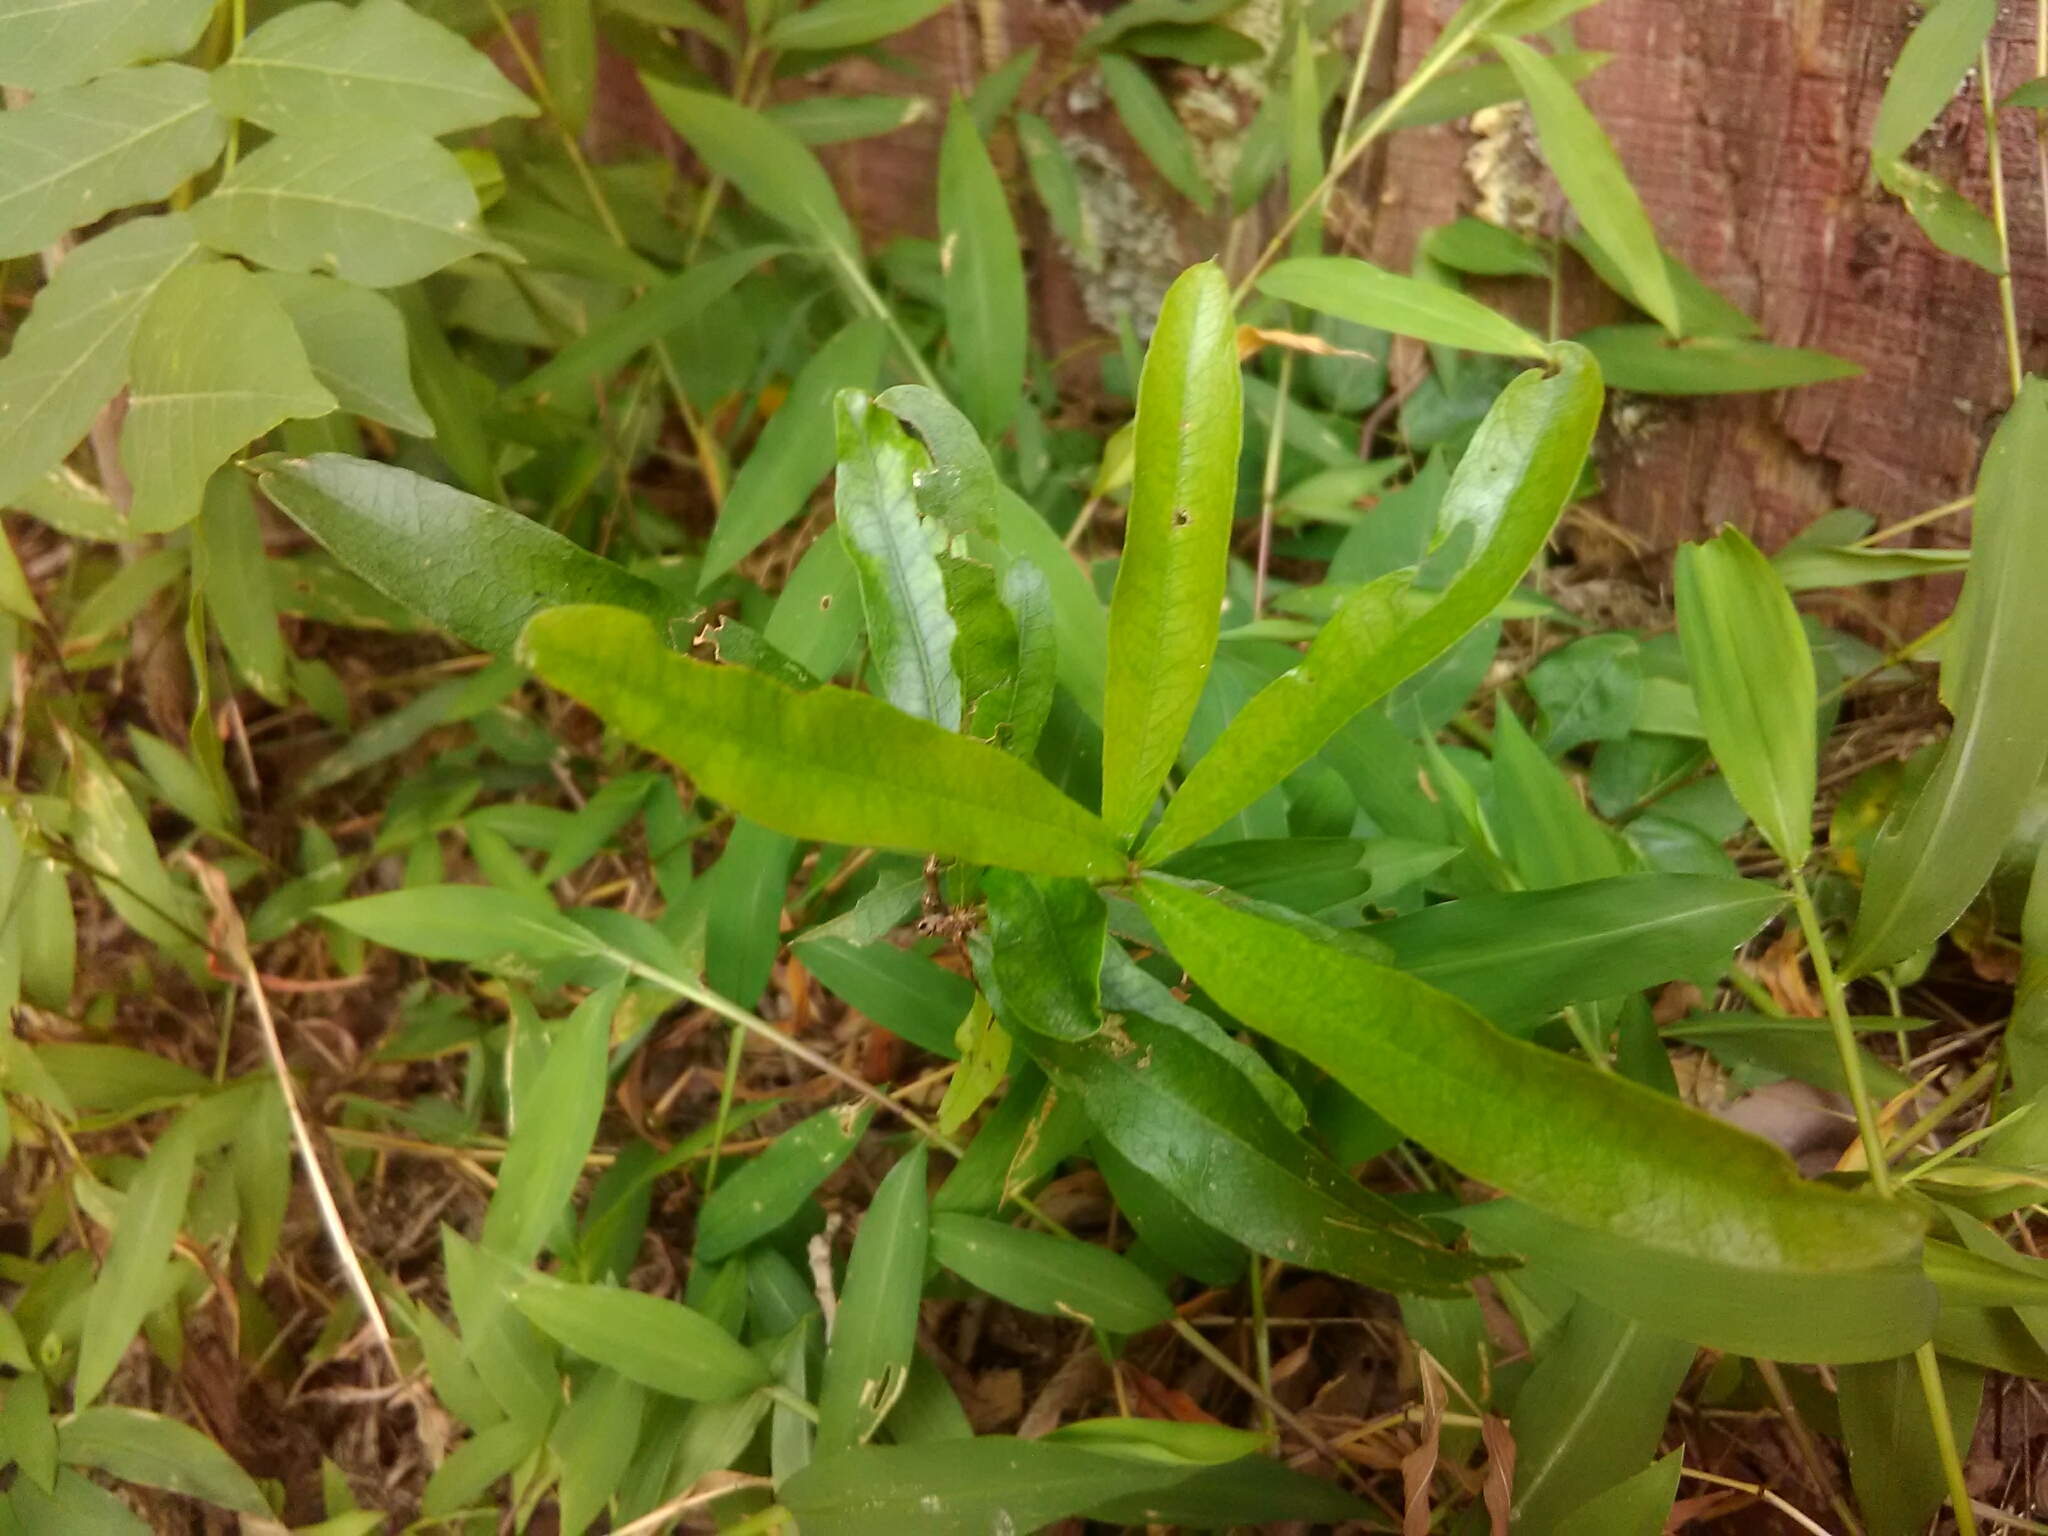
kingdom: Plantae
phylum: Tracheophyta
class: Magnoliopsida
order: Fagales
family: Fagaceae
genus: Quercus
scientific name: Quercus phellos
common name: Willow oak
